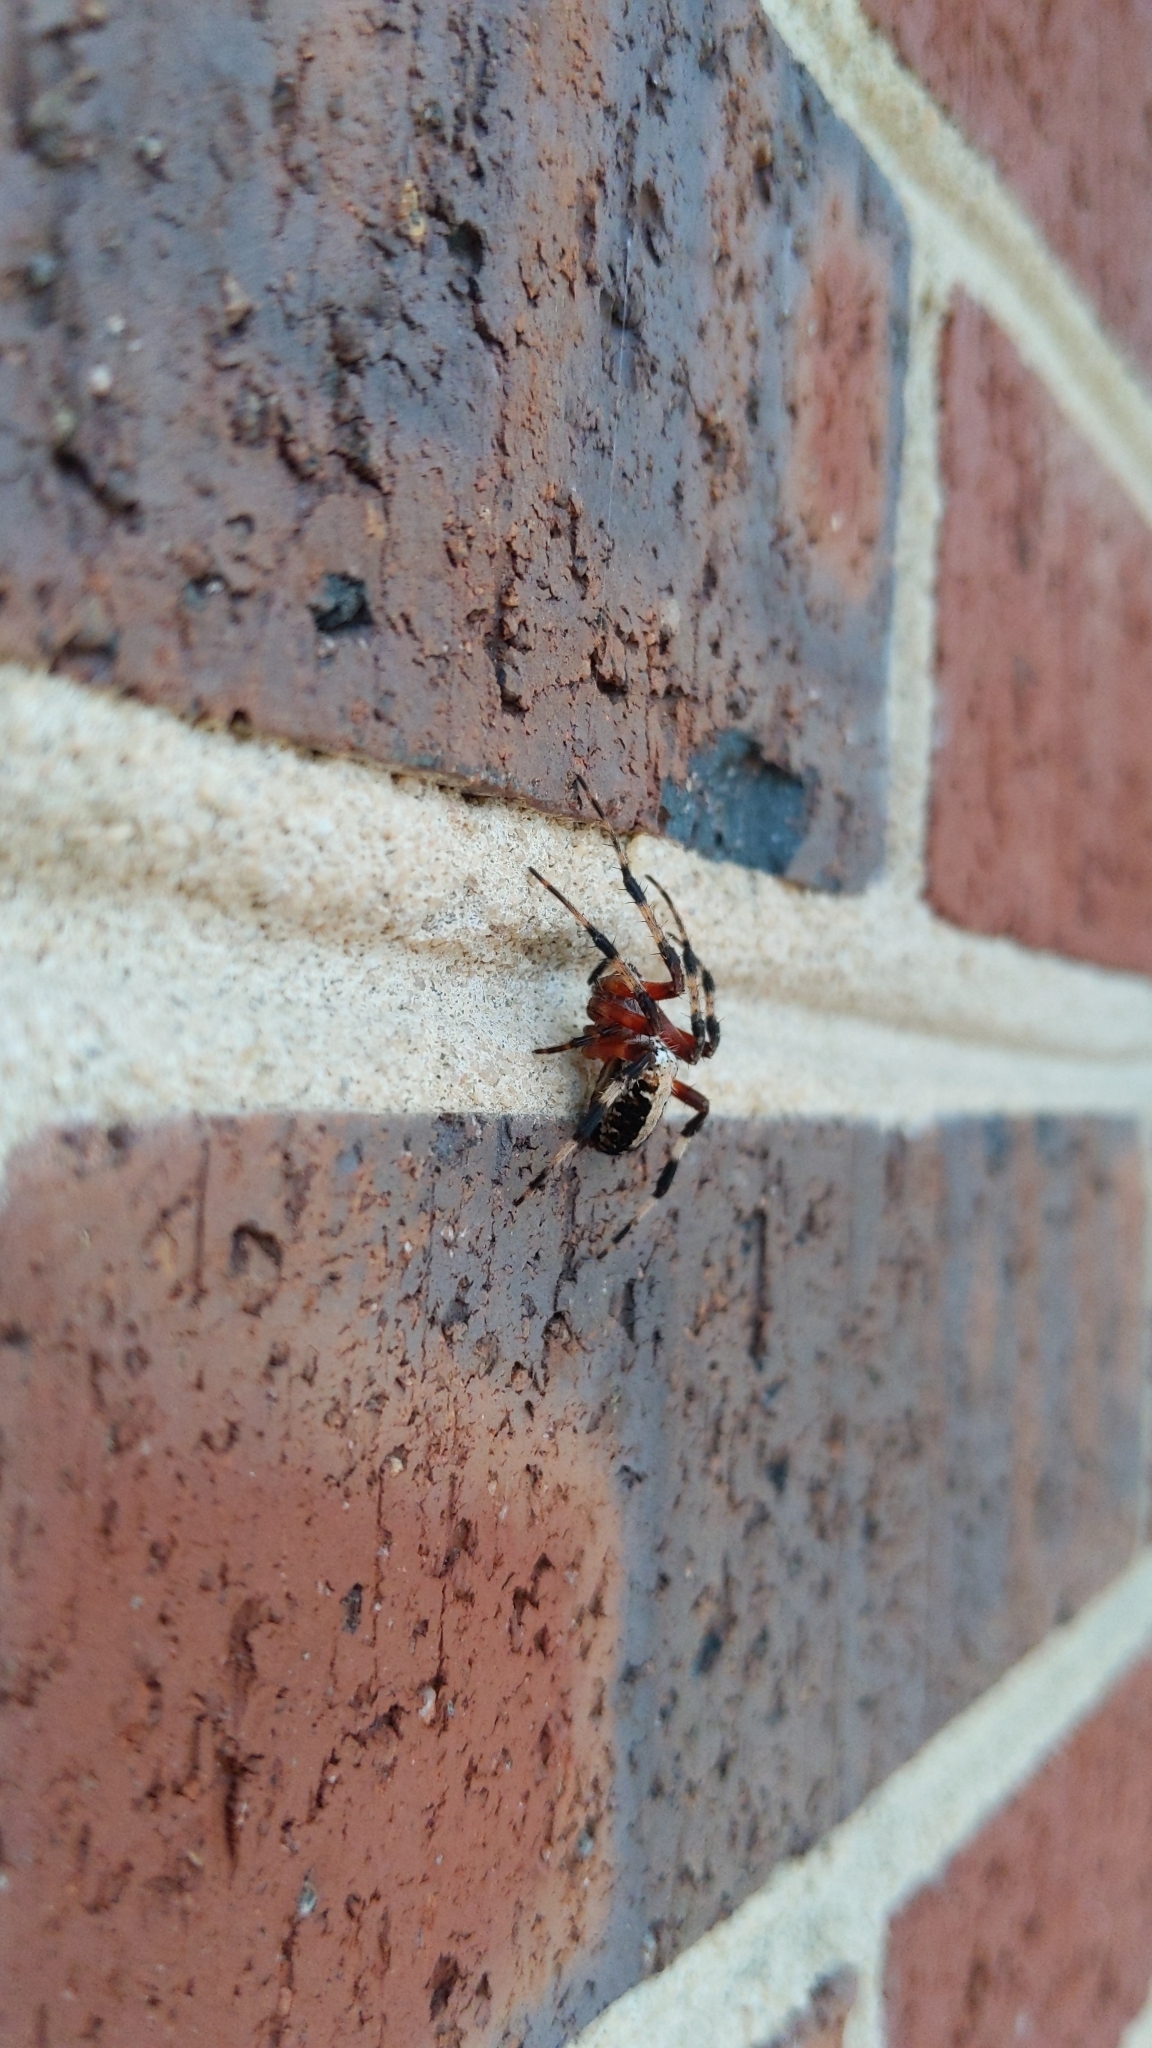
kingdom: Animalia
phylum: Arthropoda
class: Arachnida
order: Araneae
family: Araneidae
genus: Neoscona
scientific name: Neoscona domiciliorum
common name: Red-femured spotted orbweaver
